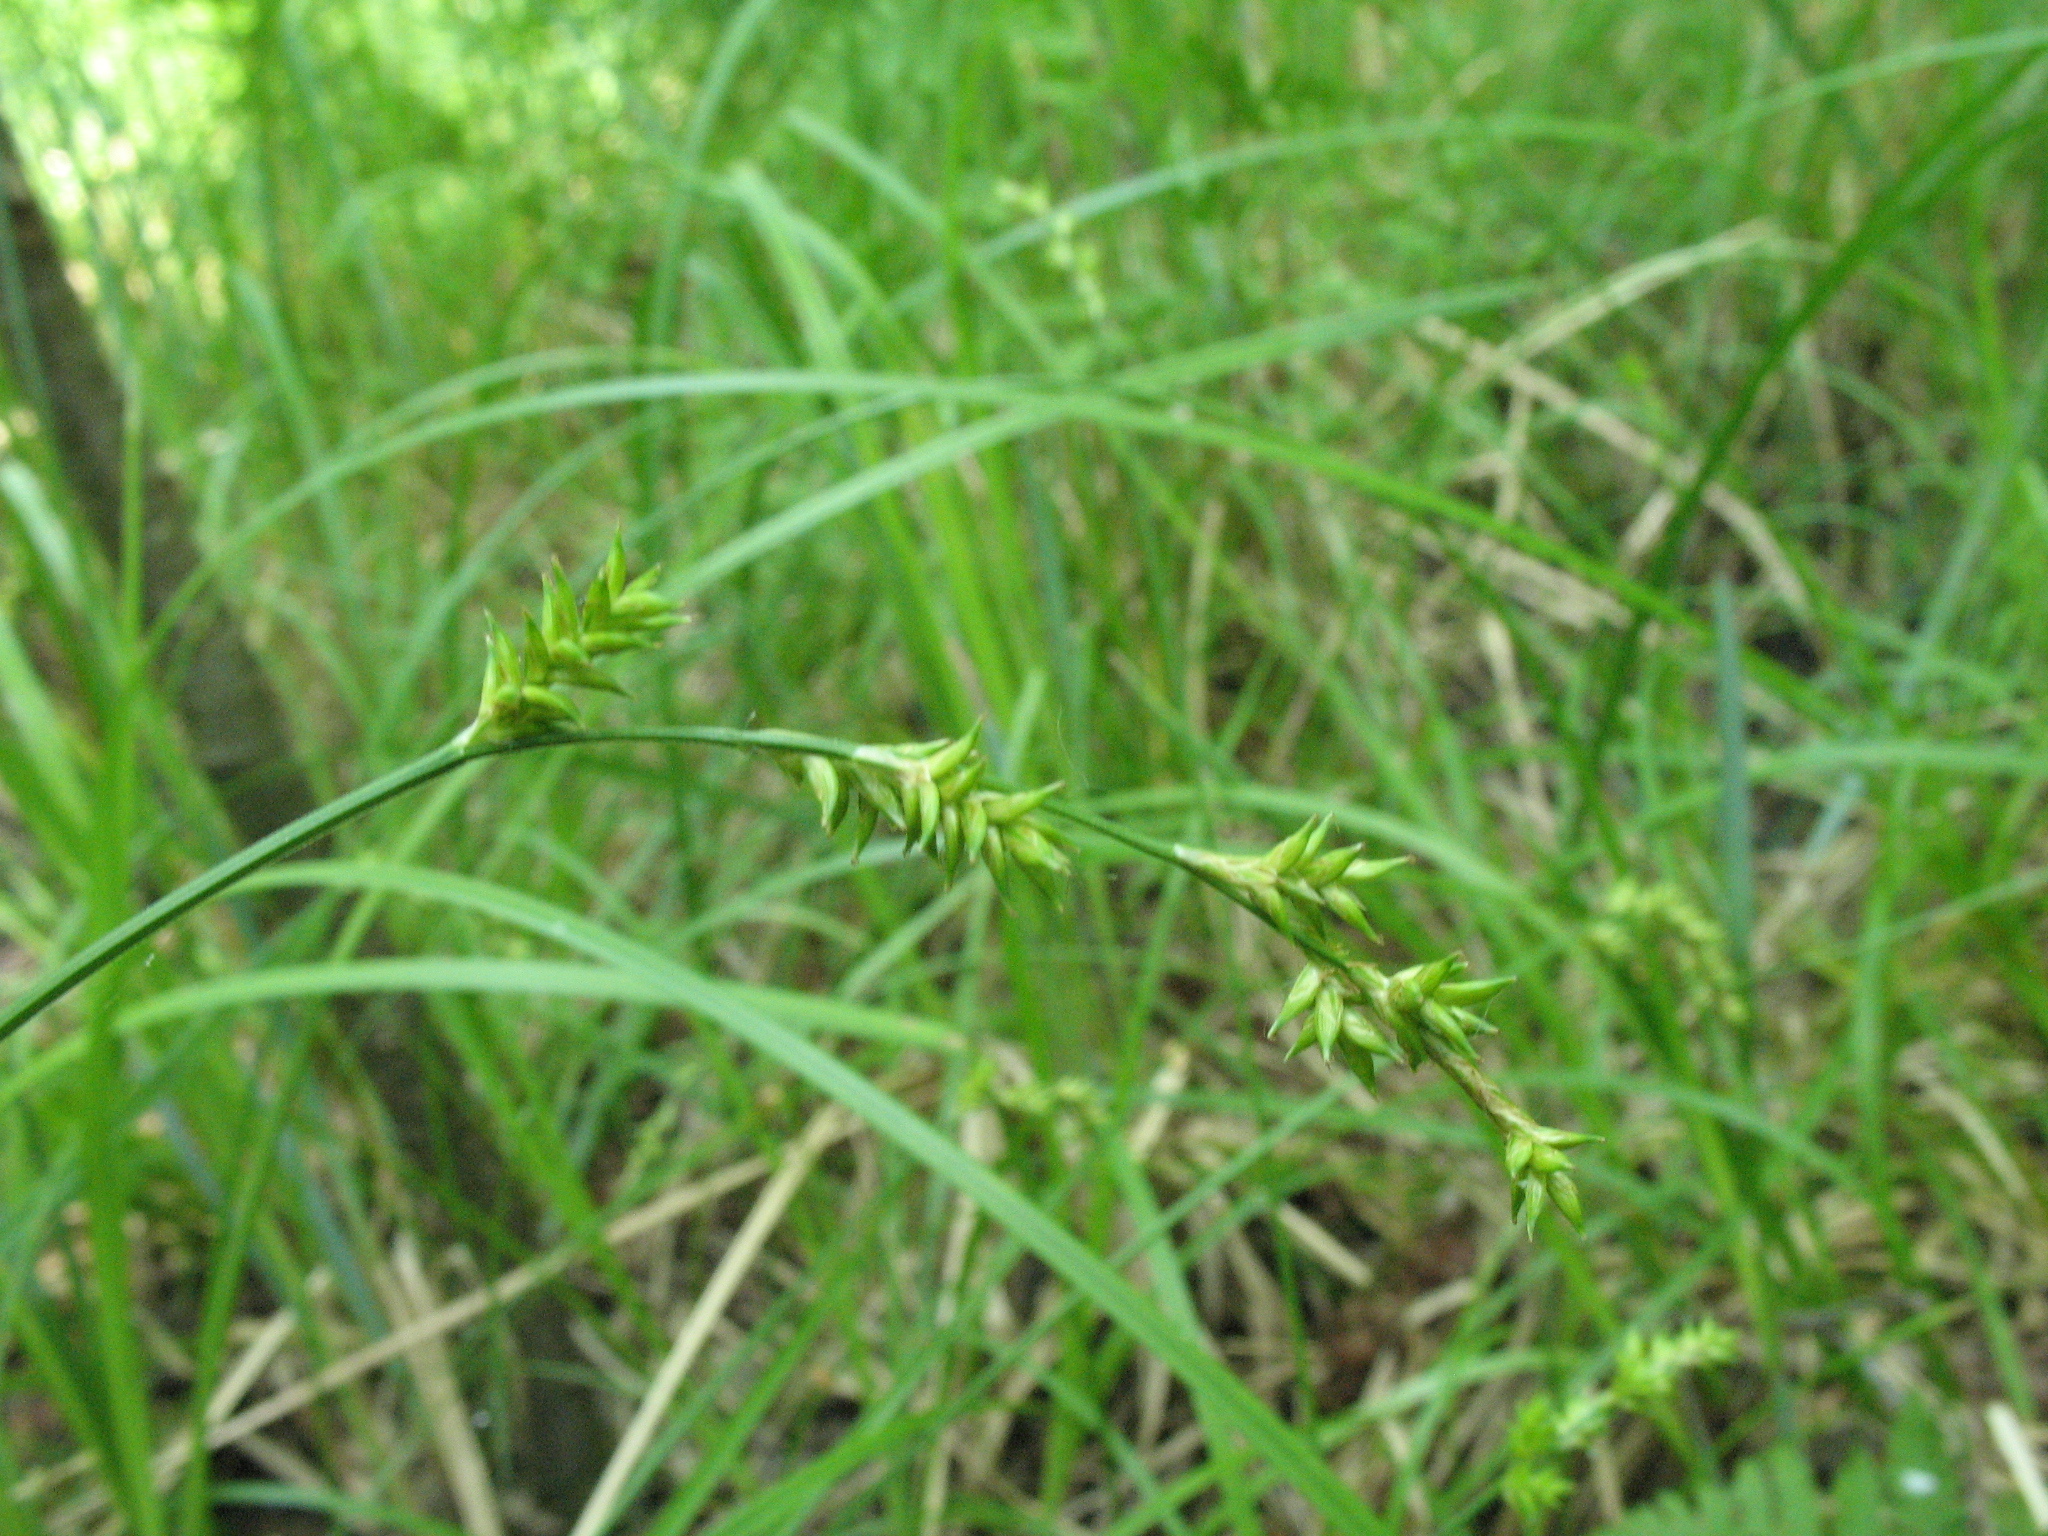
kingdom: Plantae
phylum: Tracheophyta
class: Liliopsida
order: Poales
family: Cyperaceae
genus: Carex
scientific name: Carex elongata
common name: Elongated sedge
